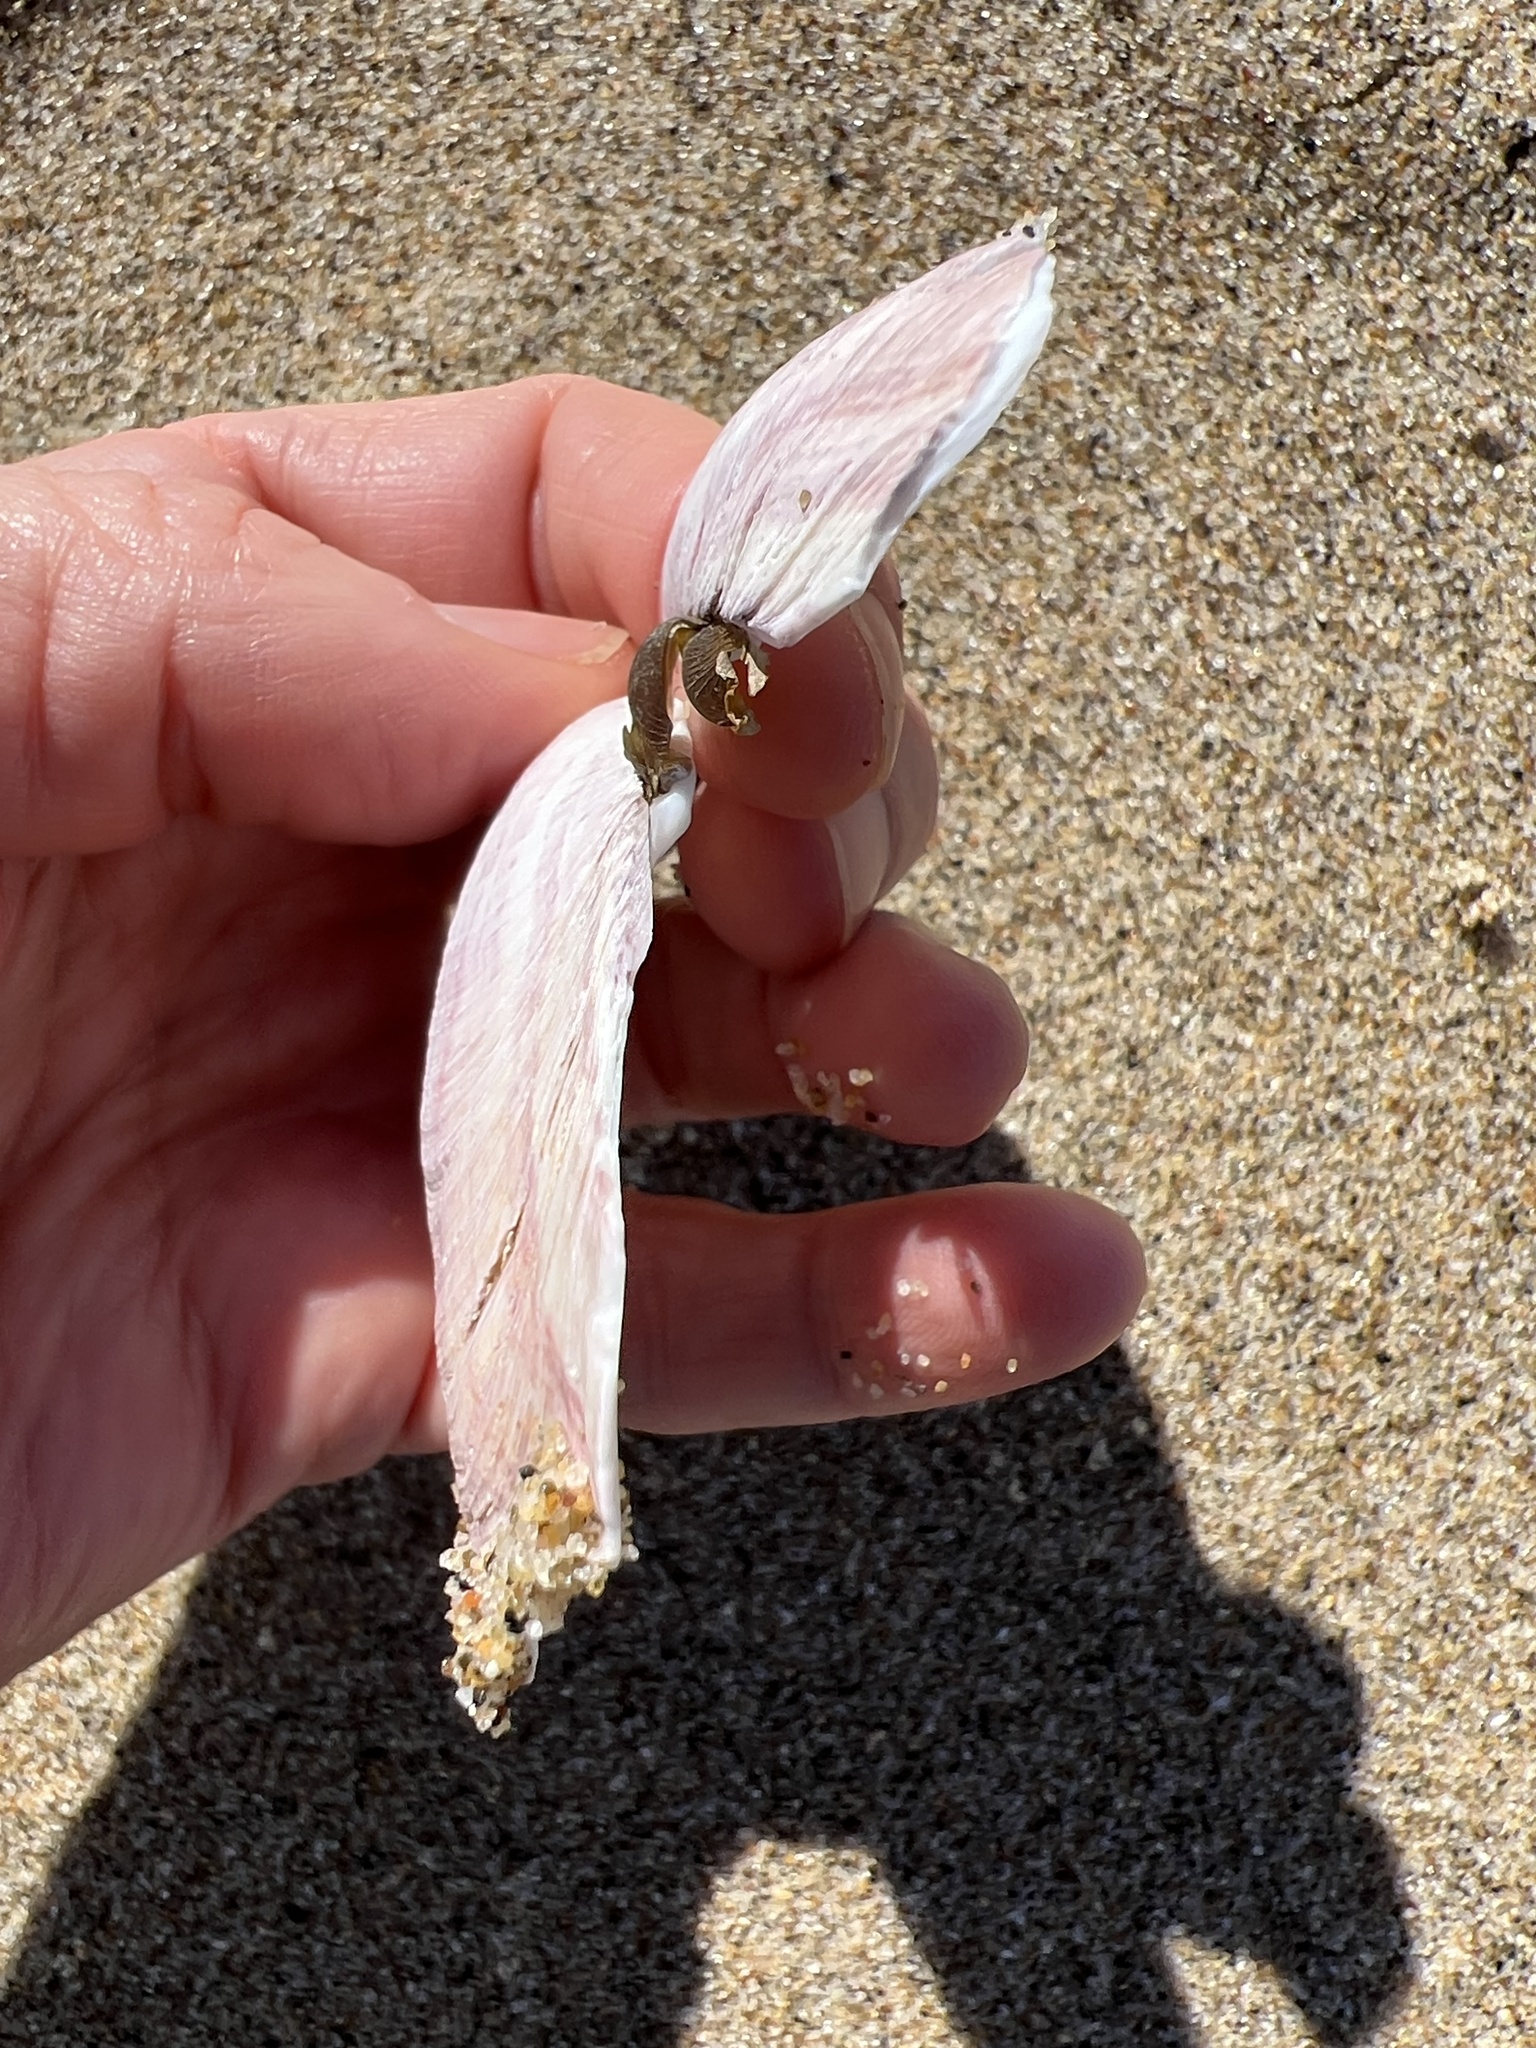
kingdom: Animalia
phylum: Mollusca
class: Bivalvia
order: Cardiida
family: Psammobiidae
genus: Gari
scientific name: Gari californica
